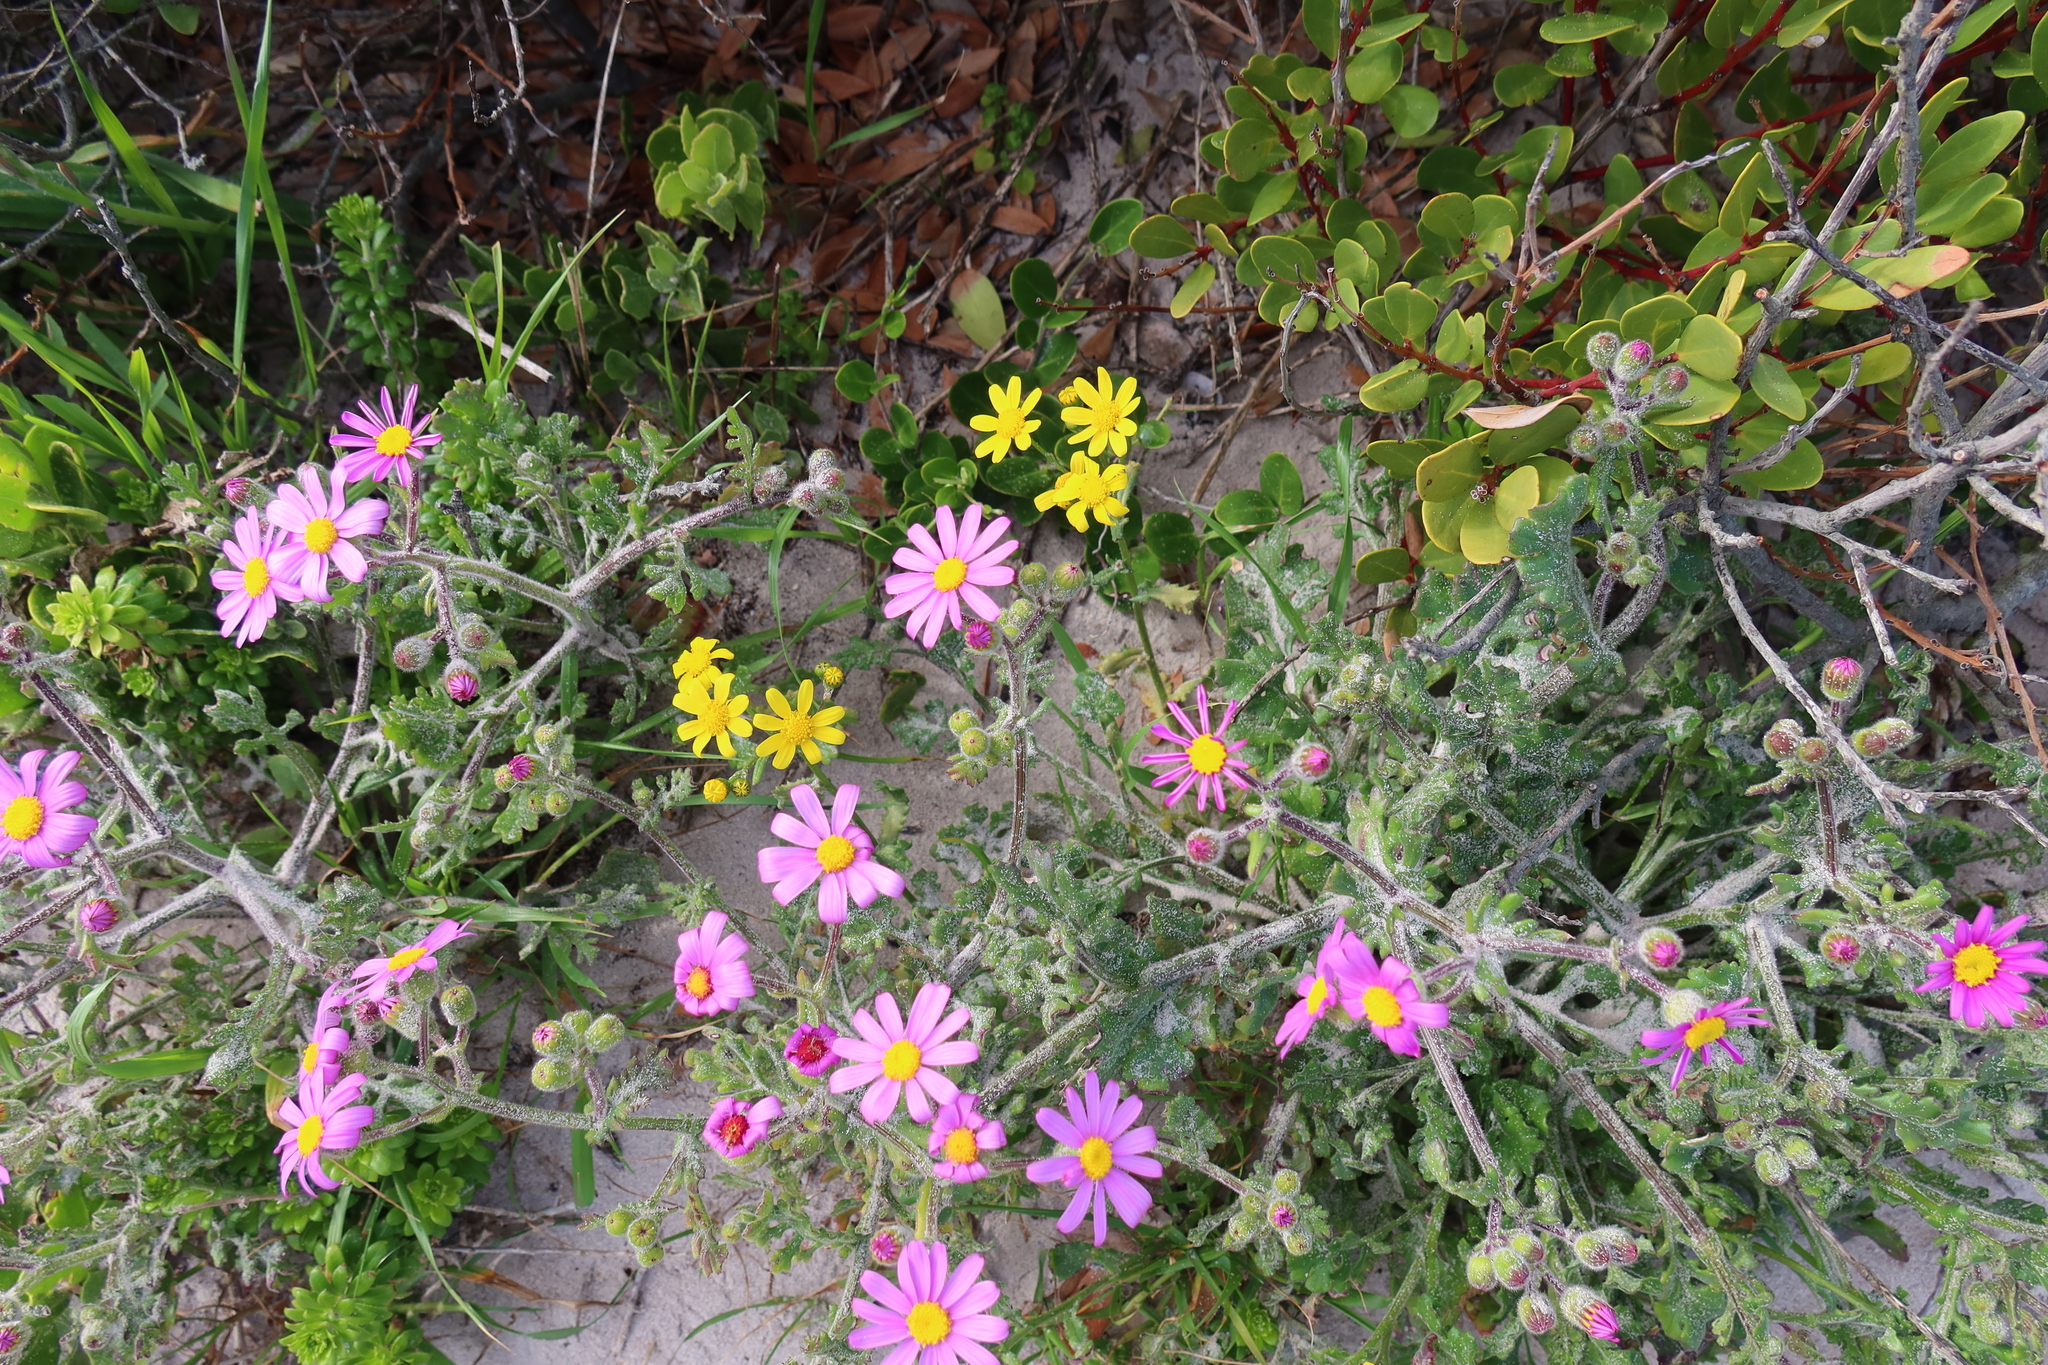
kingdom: Plantae
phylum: Tracheophyta
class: Magnoliopsida
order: Asterales
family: Asteraceae
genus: Senecio
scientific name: Senecio elegans
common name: Purple groundsel
